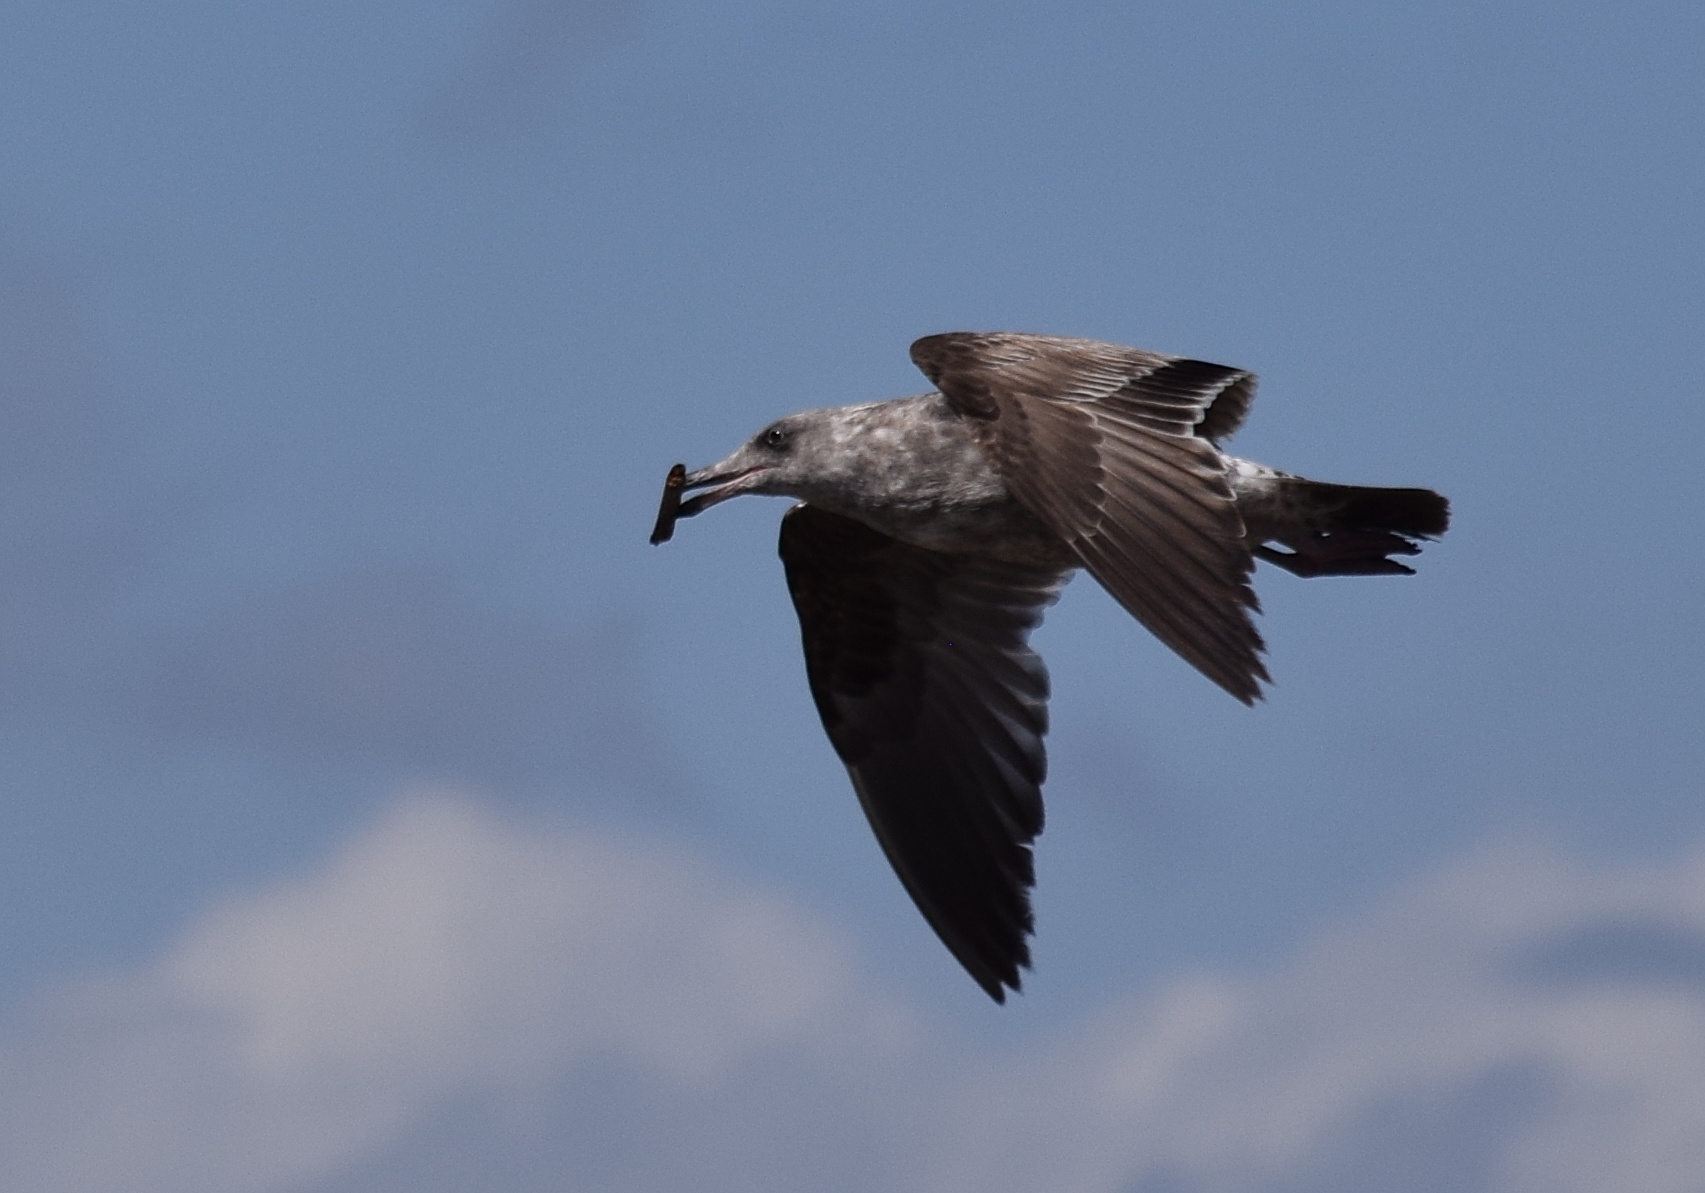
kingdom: Animalia
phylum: Chordata
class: Aves
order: Charadriiformes
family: Laridae
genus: Larus
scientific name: Larus occidentalis
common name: Western gull
